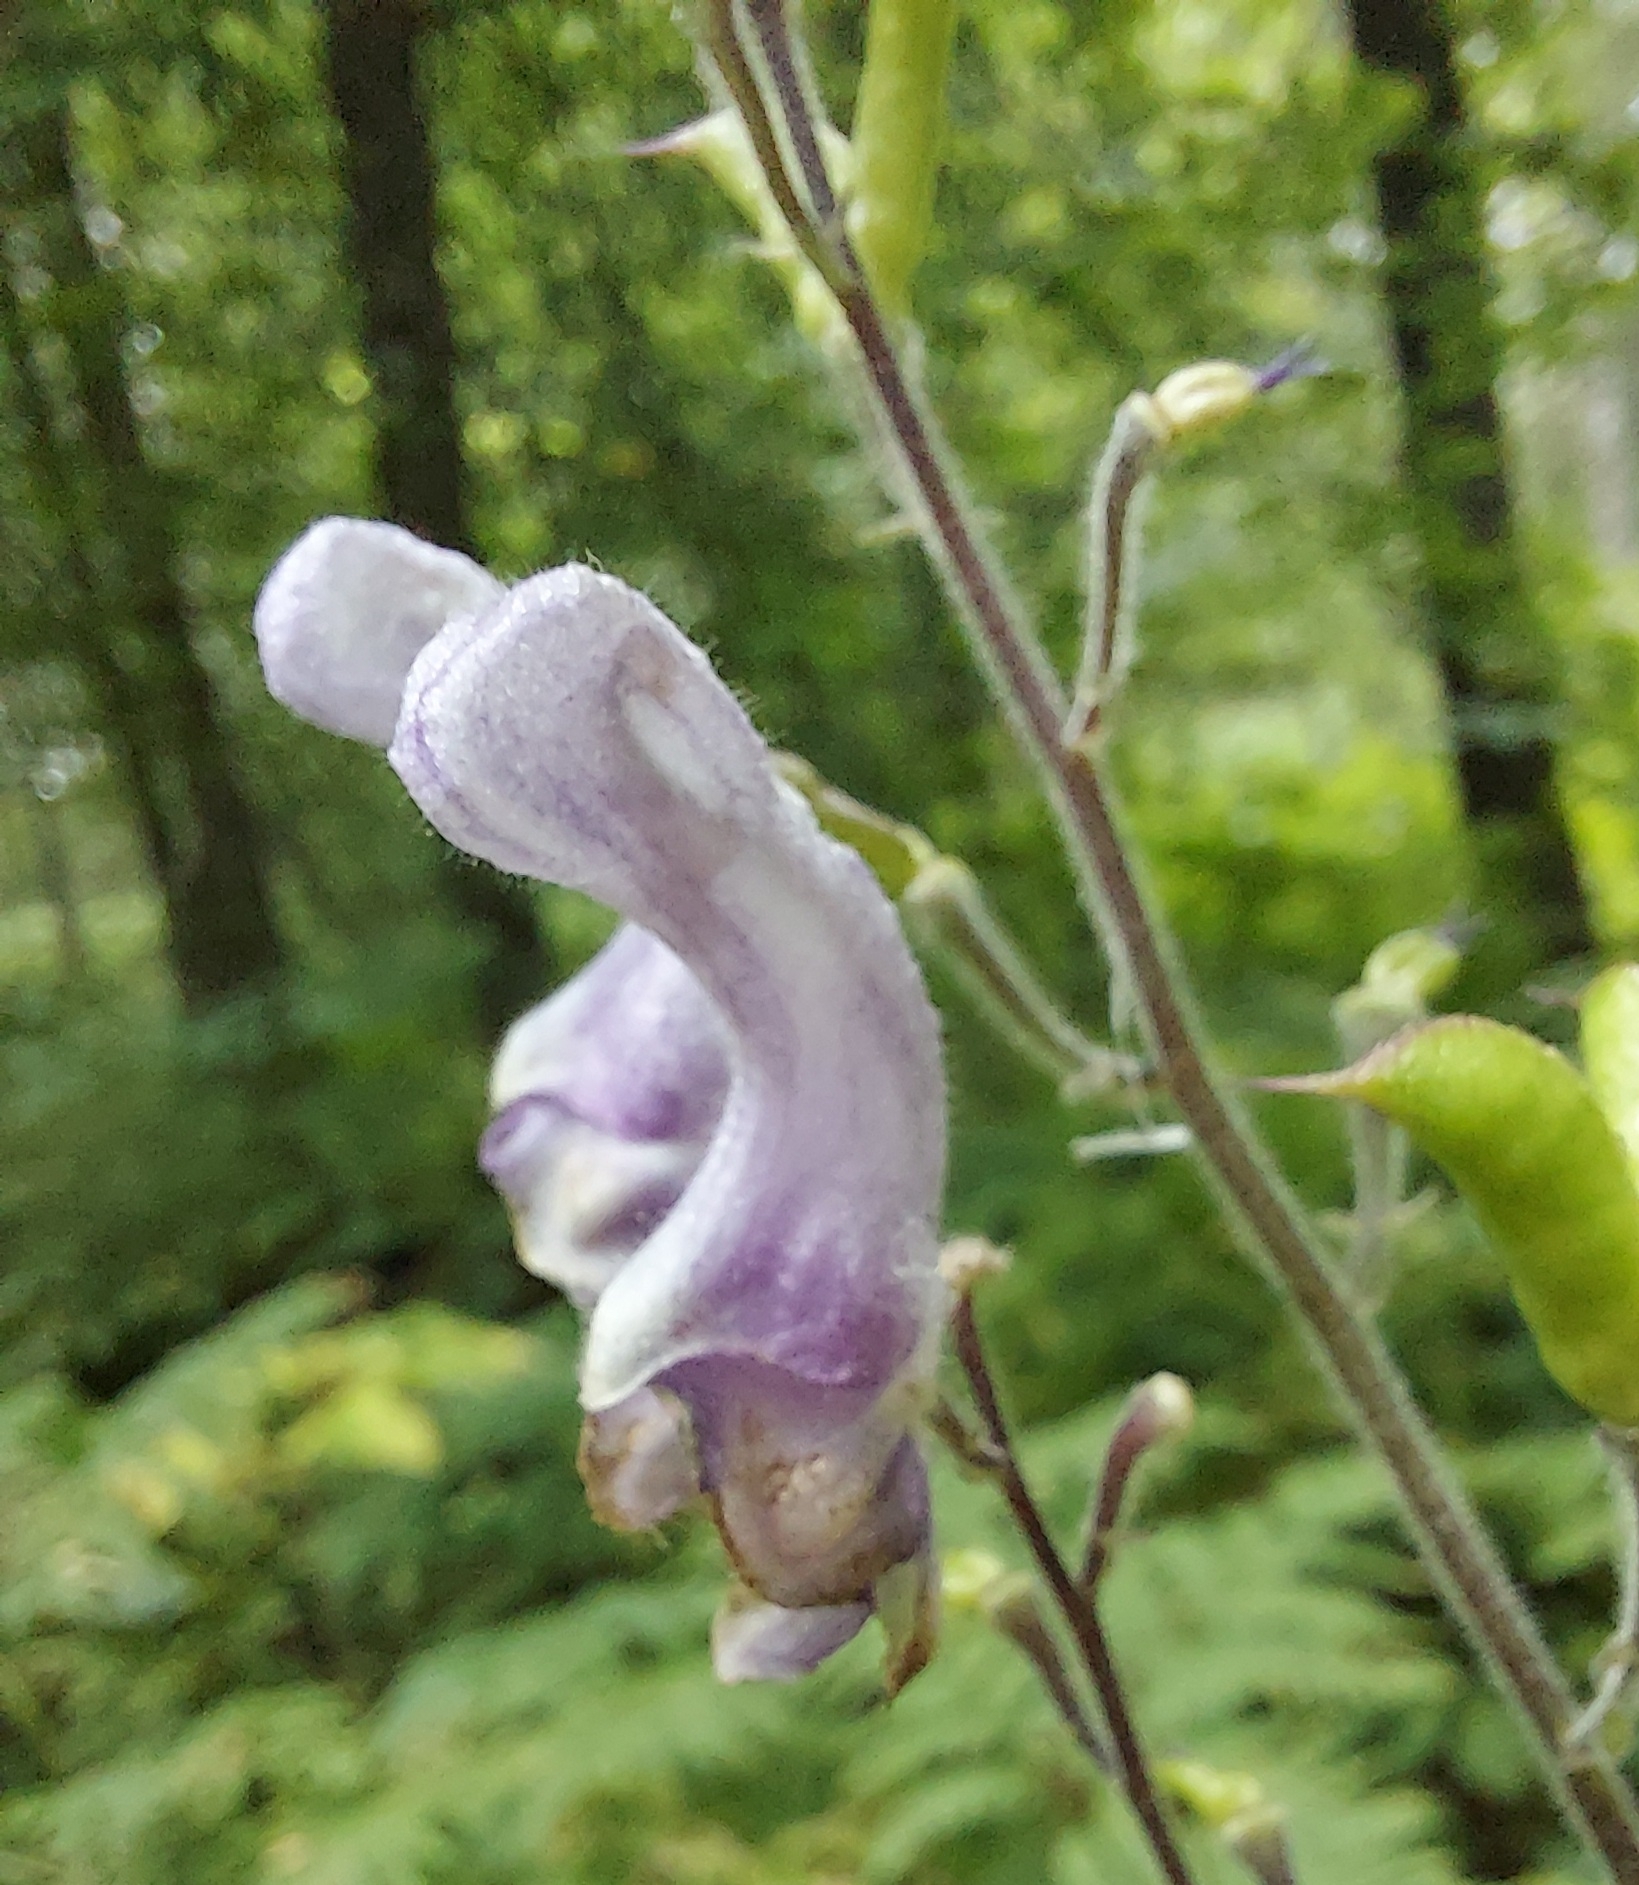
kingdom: Plantae
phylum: Tracheophyta
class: Magnoliopsida
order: Ranunculales
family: Ranunculaceae
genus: Aconitum
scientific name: Aconitum septentrionale
